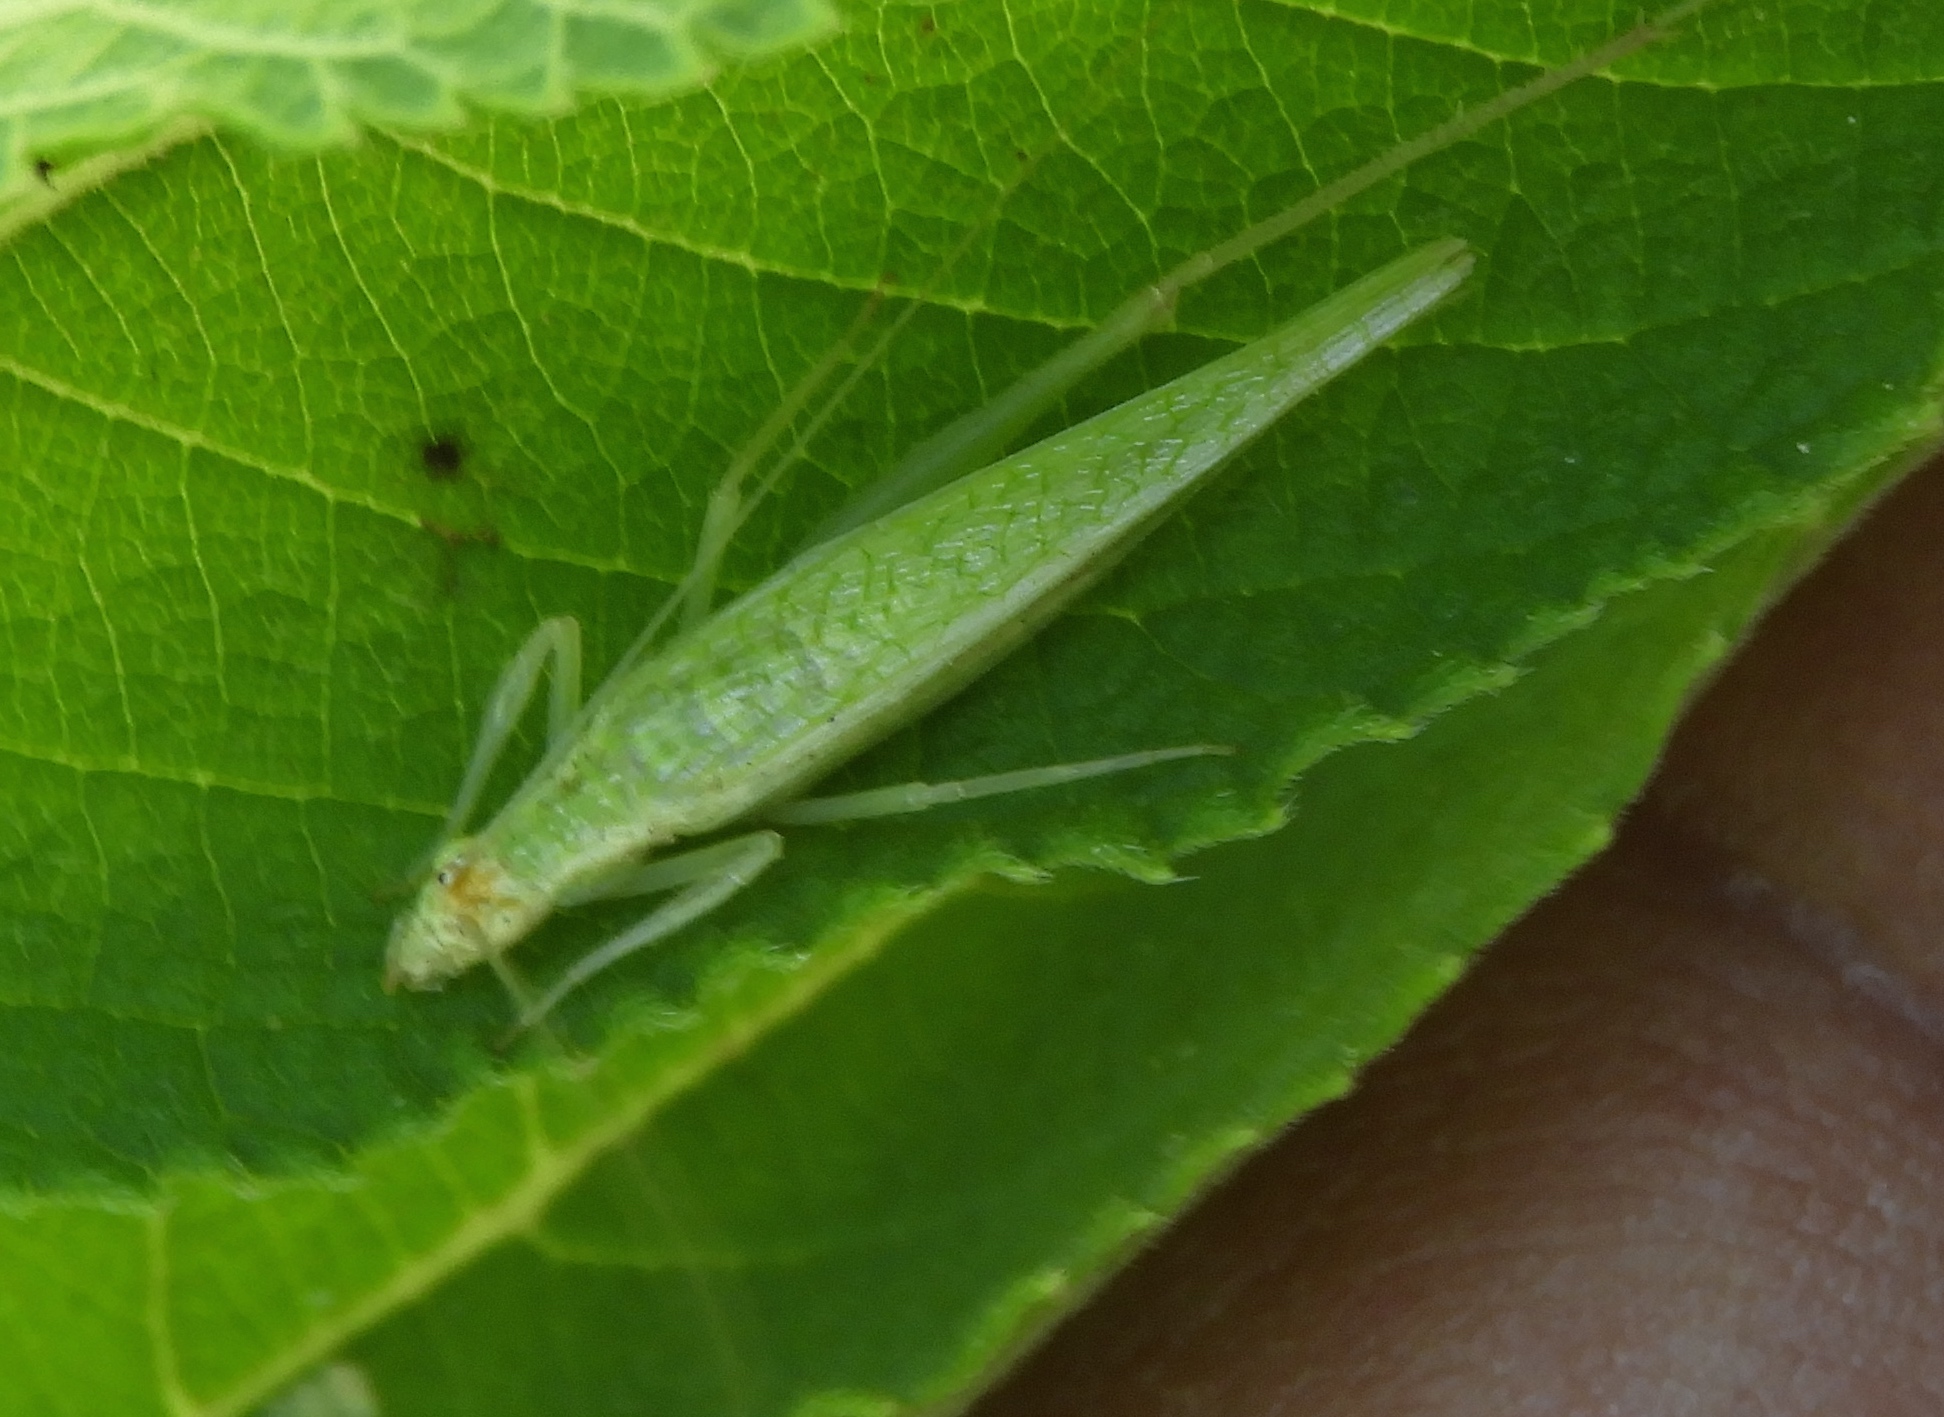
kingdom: Animalia
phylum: Arthropoda
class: Insecta
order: Orthoptera
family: Gryllidae
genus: Oecanthus
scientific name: Oecanthus comma
